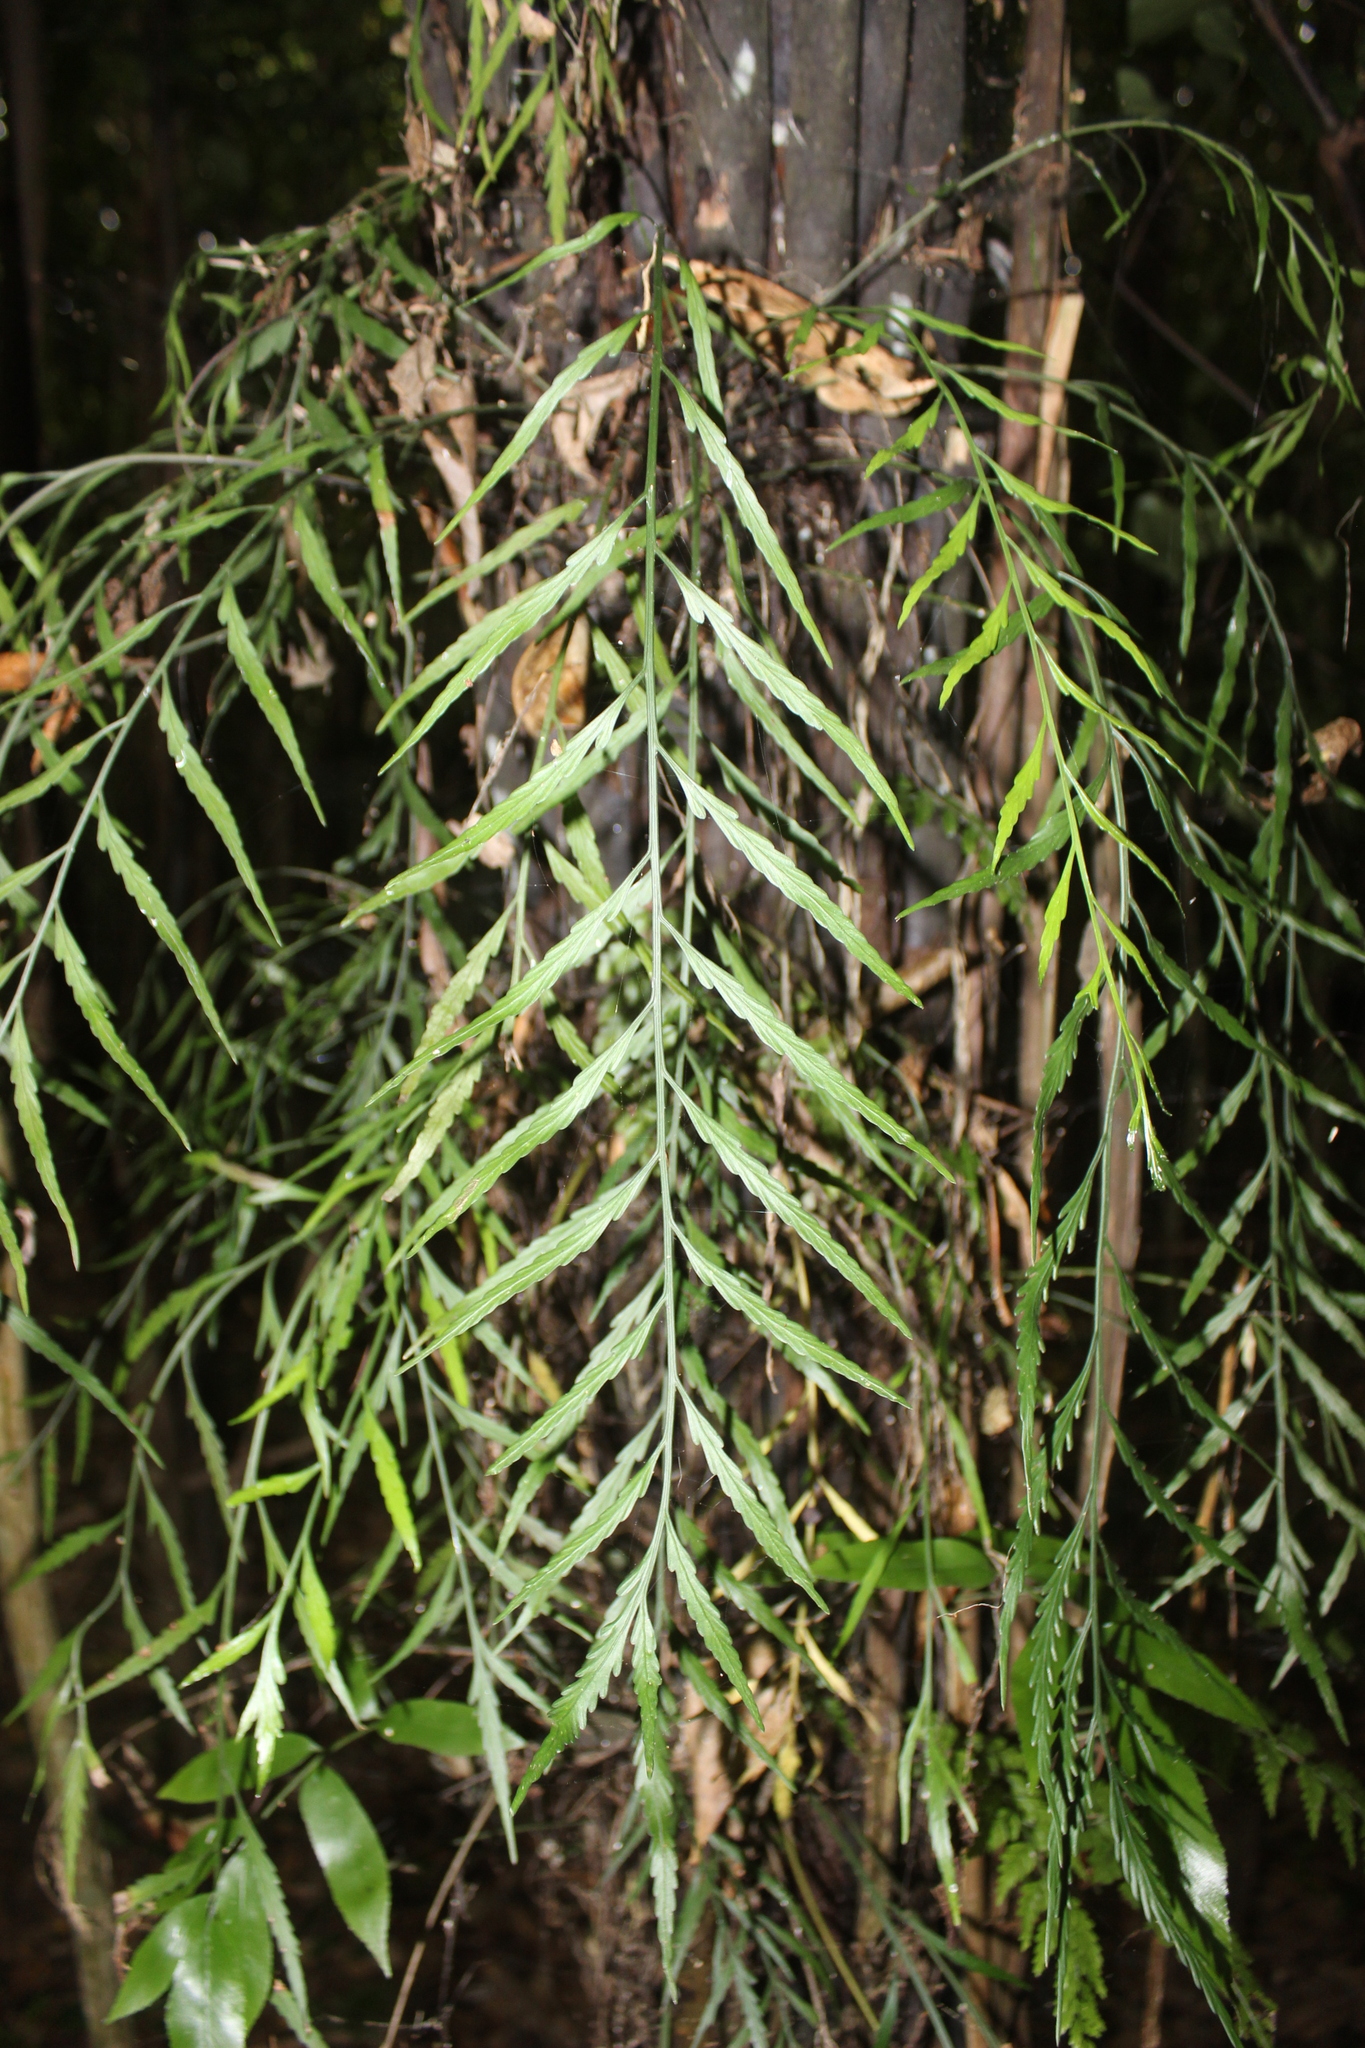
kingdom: Plantae
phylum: Tracheophyta
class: Polypodiopsida
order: Polypodiales
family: Aspleniaceae
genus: Asplenium
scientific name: Asplenium flaccidum
